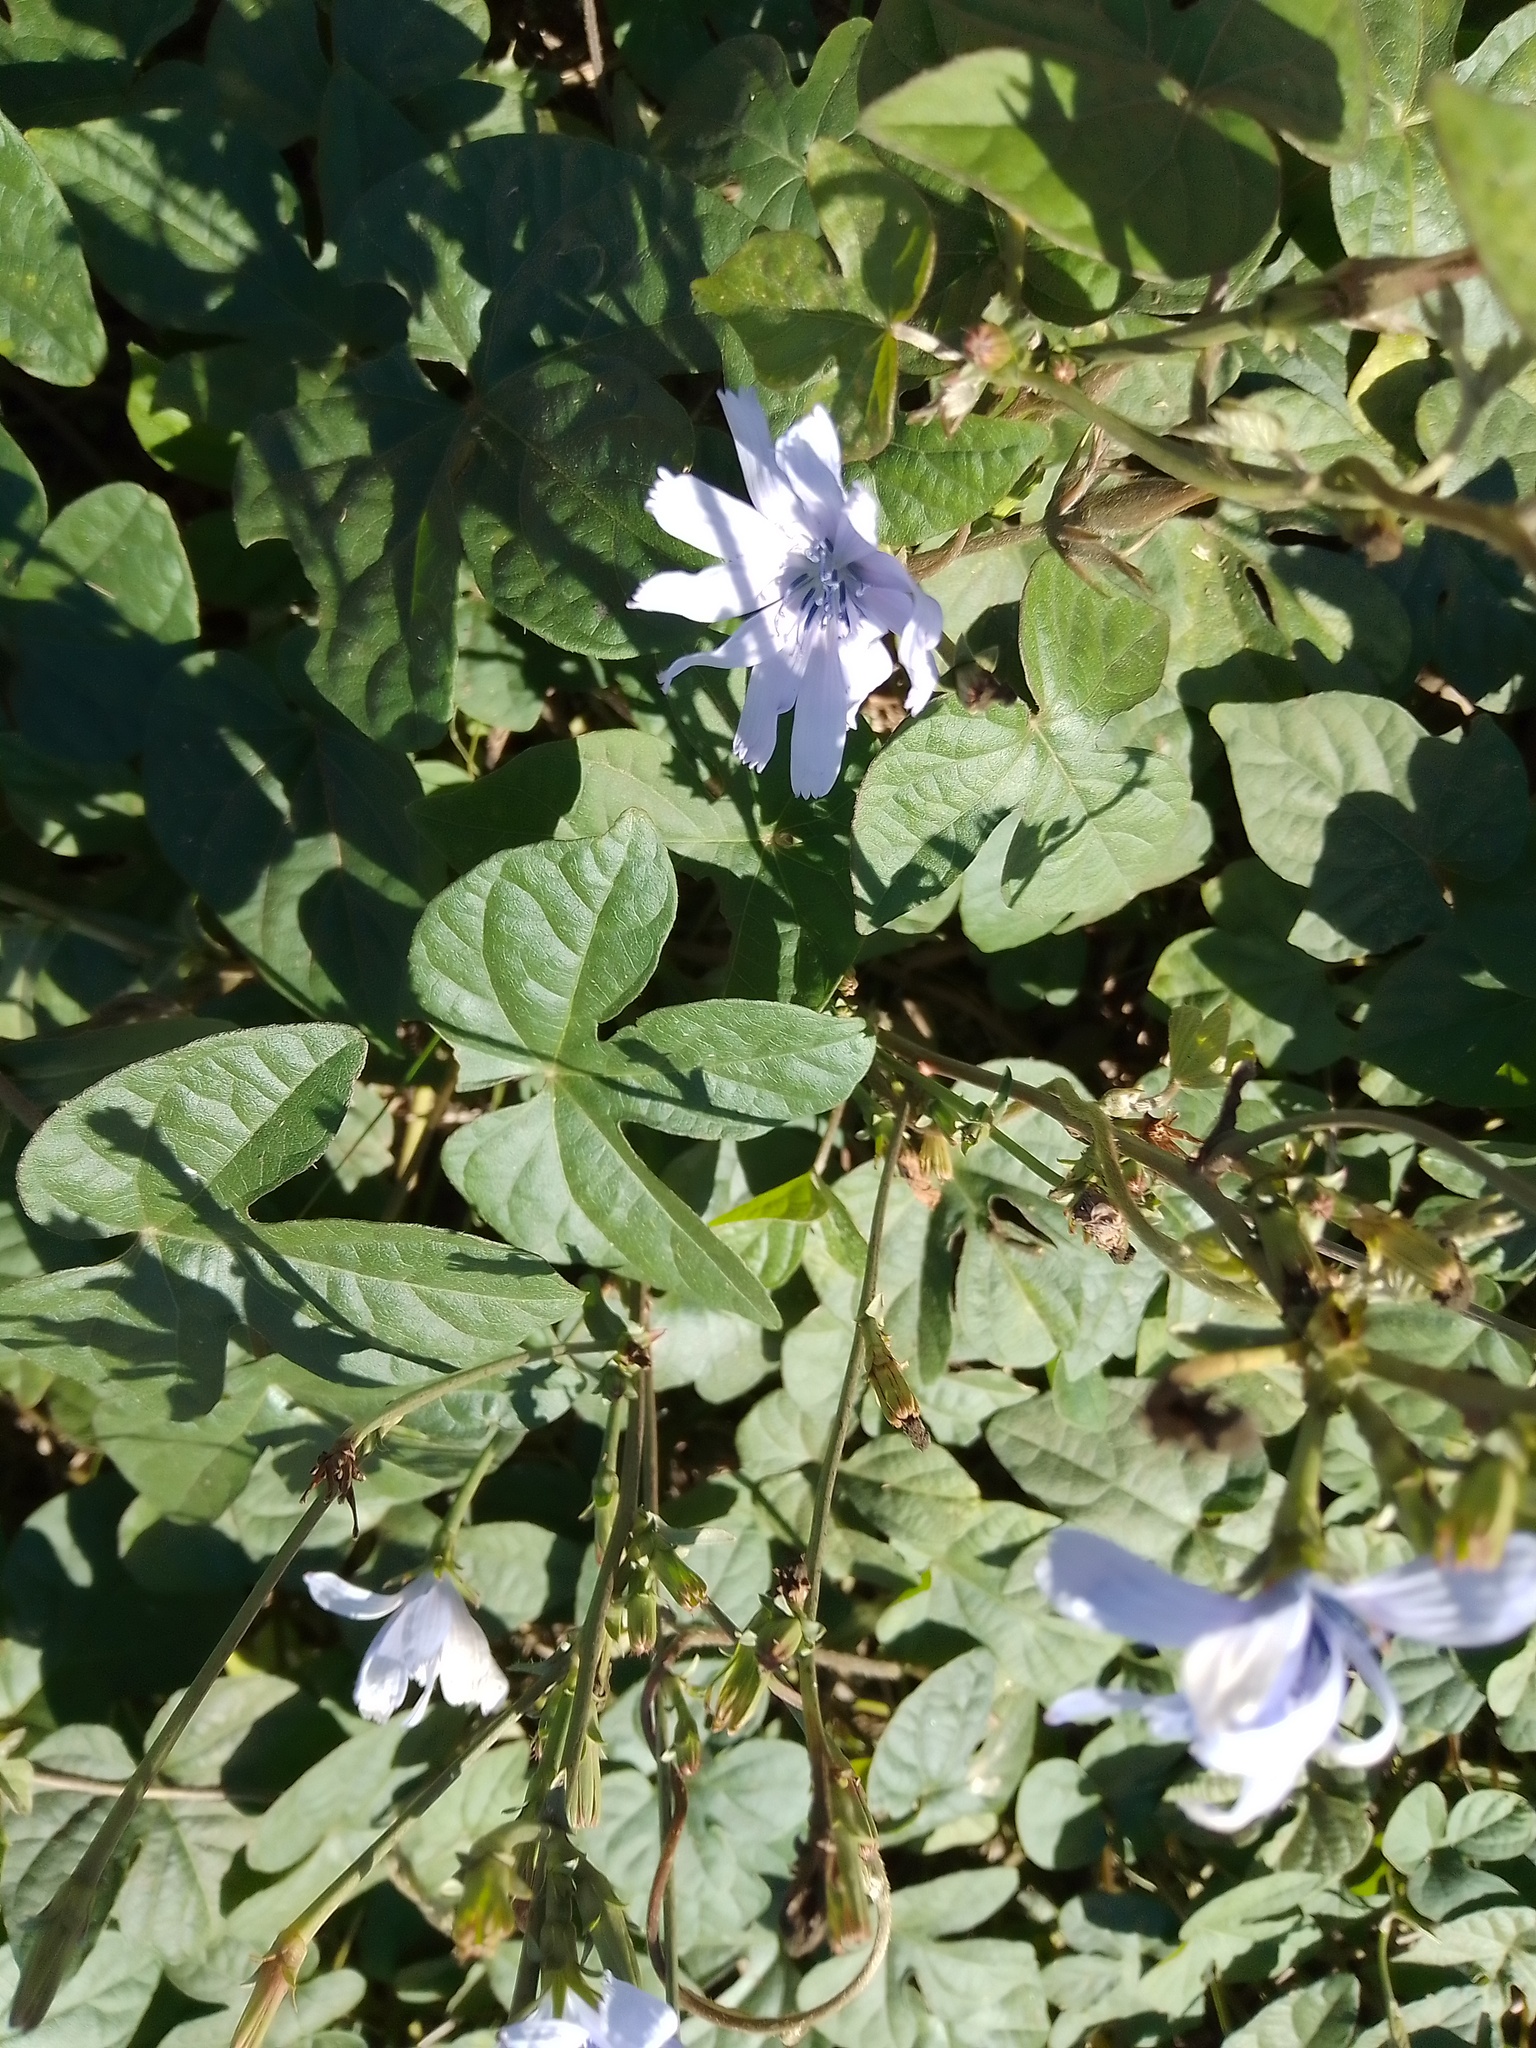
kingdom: Plantae
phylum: Tracheophyta
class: Magnoliopsida
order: Asterales
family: Asteraceae
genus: Cichorium
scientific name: Cichorium intybus
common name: Chicory
